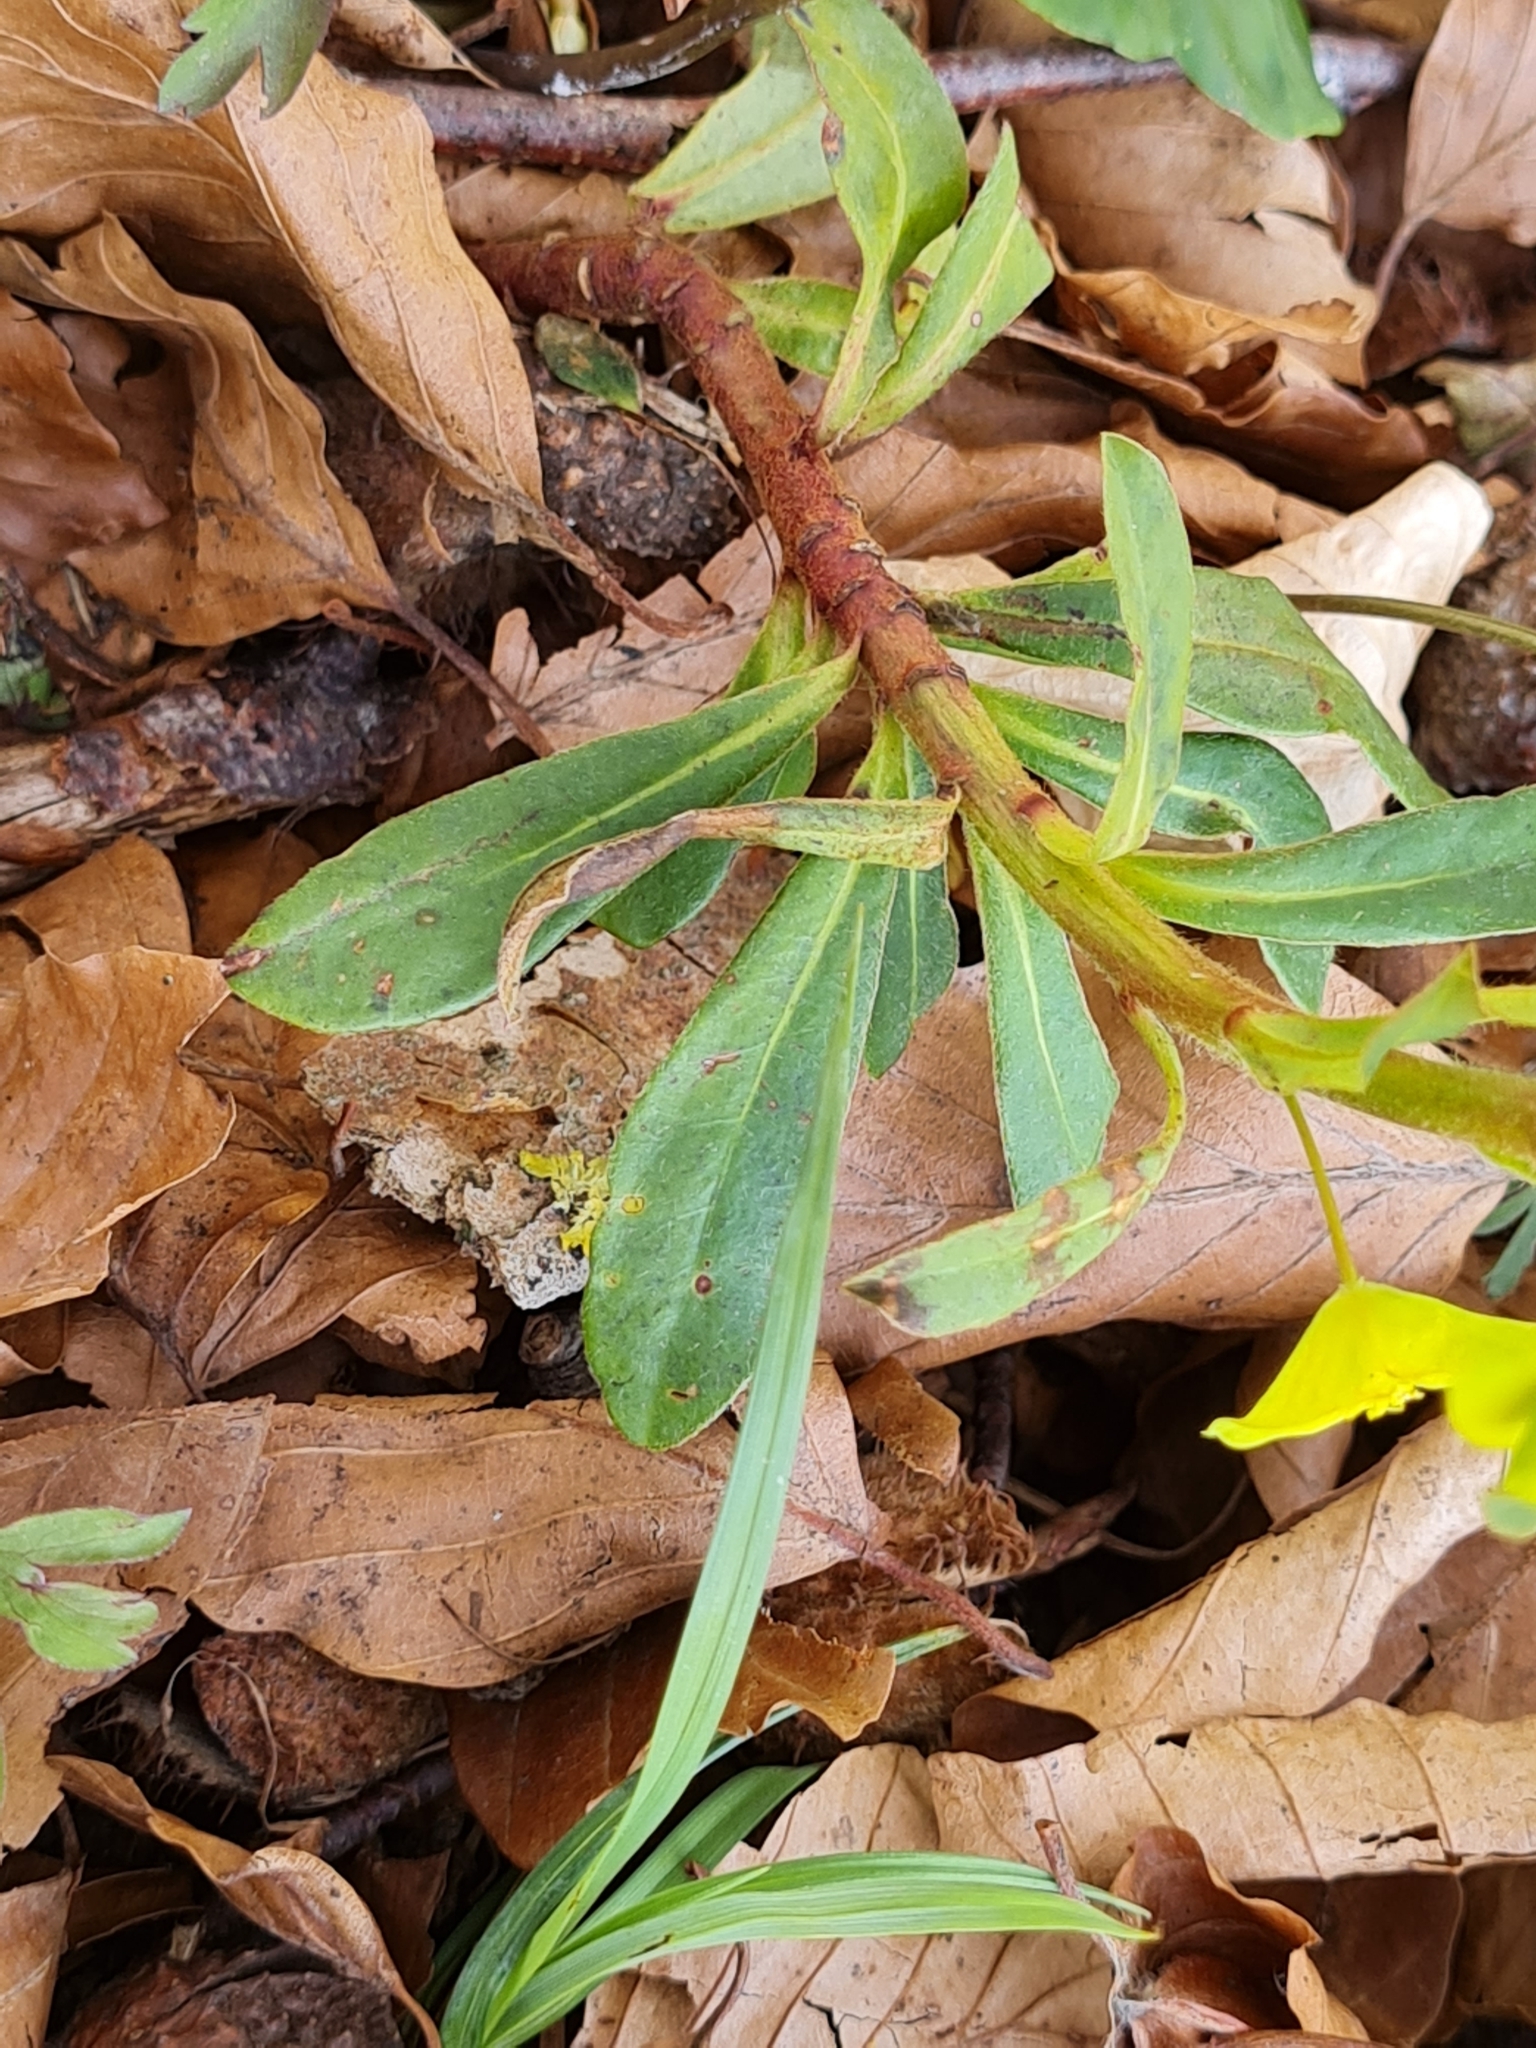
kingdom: Plantae
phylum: Tracheophyta
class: Magnoliopsida
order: Malpighiales
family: Euphorbiaceae
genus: Euphorbia
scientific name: Euphorbia amygdaloides
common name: Wood spurge
